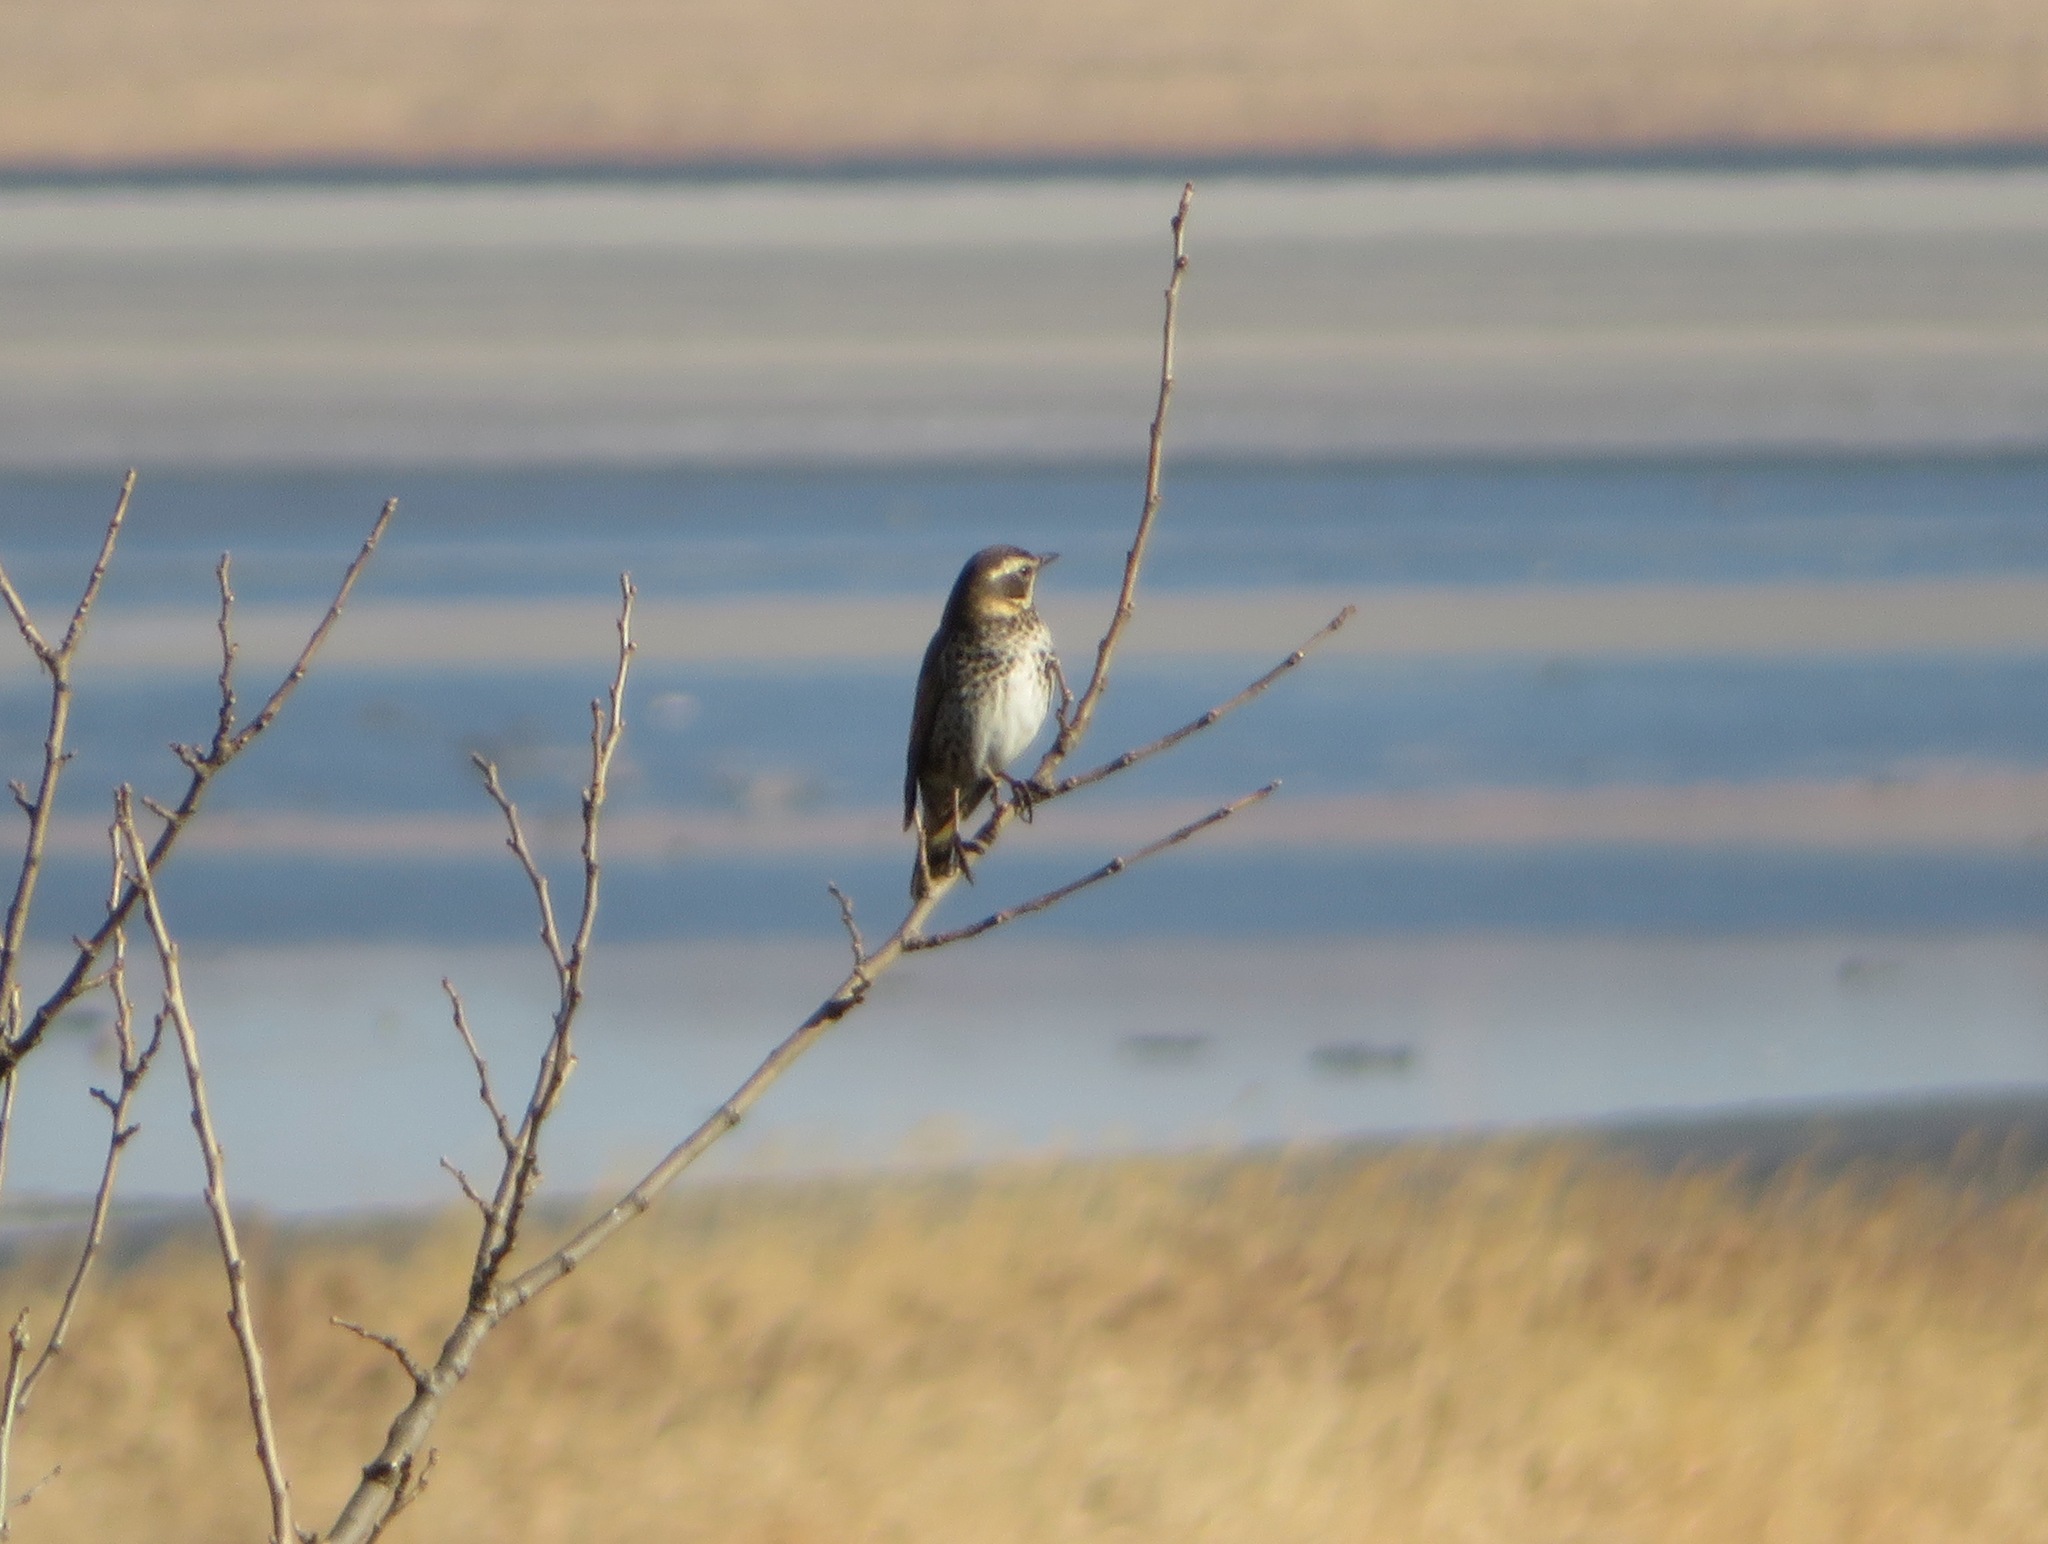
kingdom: Animalia
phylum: Chordata
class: Aves
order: Passeriformes
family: Turdidae
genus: Turdus
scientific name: Turdus eunomus
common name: Dusky thrush
